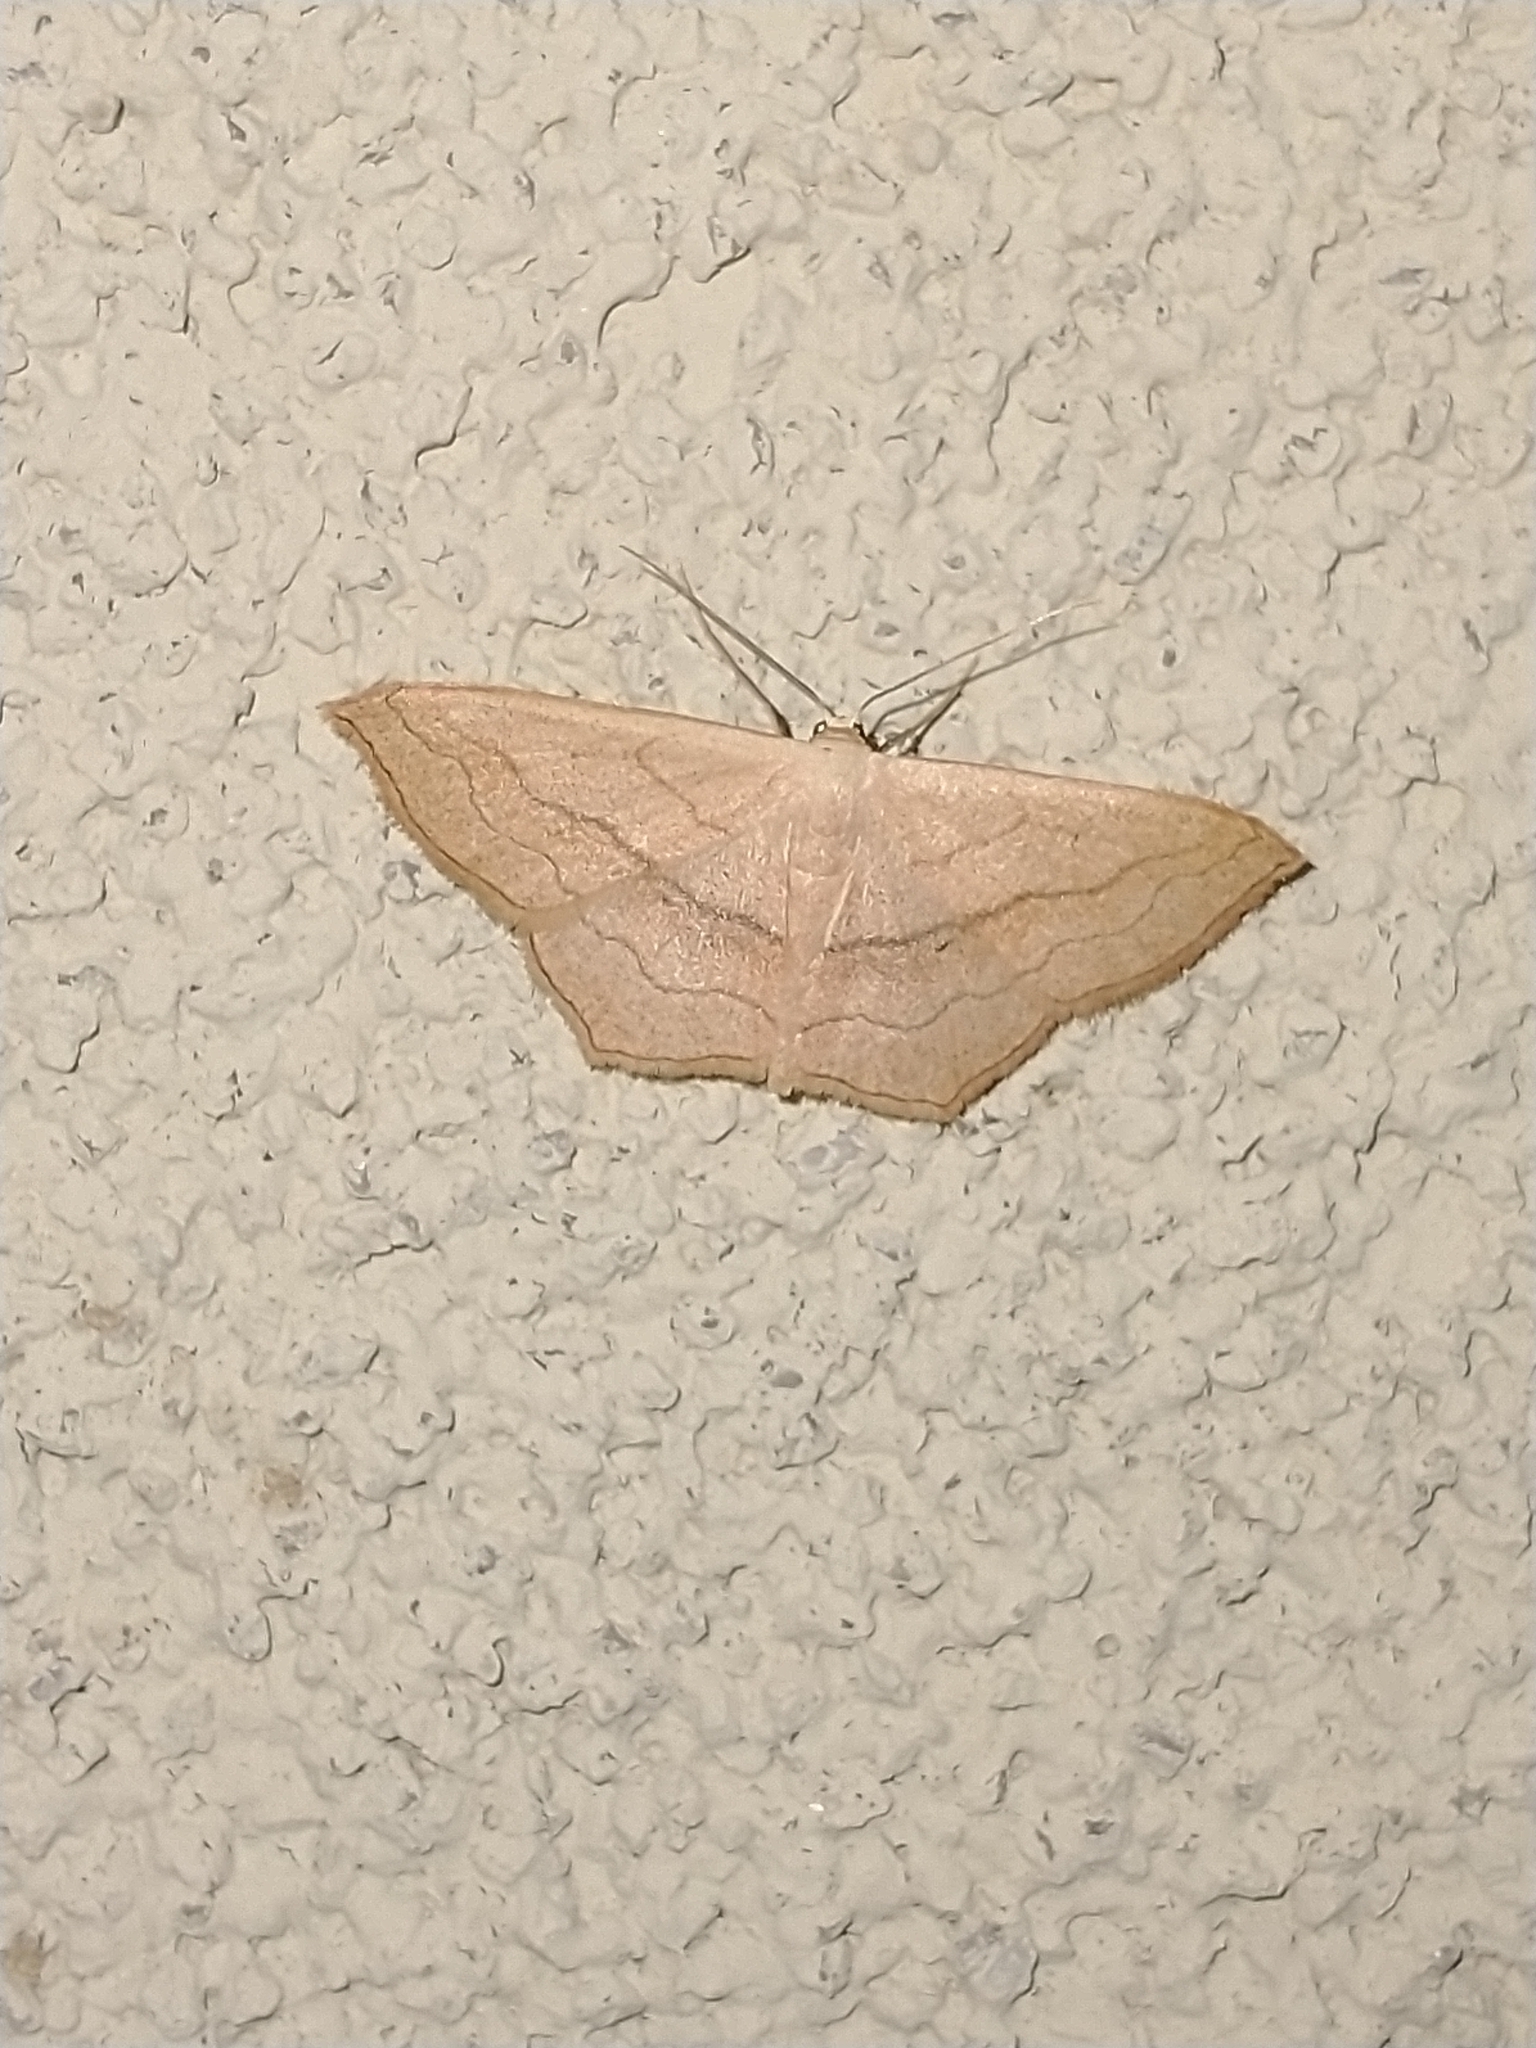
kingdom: Animalia
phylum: Arthropoda
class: Insecta
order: Lepidoptera
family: Geometridae
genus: Scopula
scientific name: Scopula imitaria
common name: Small blood-vein
